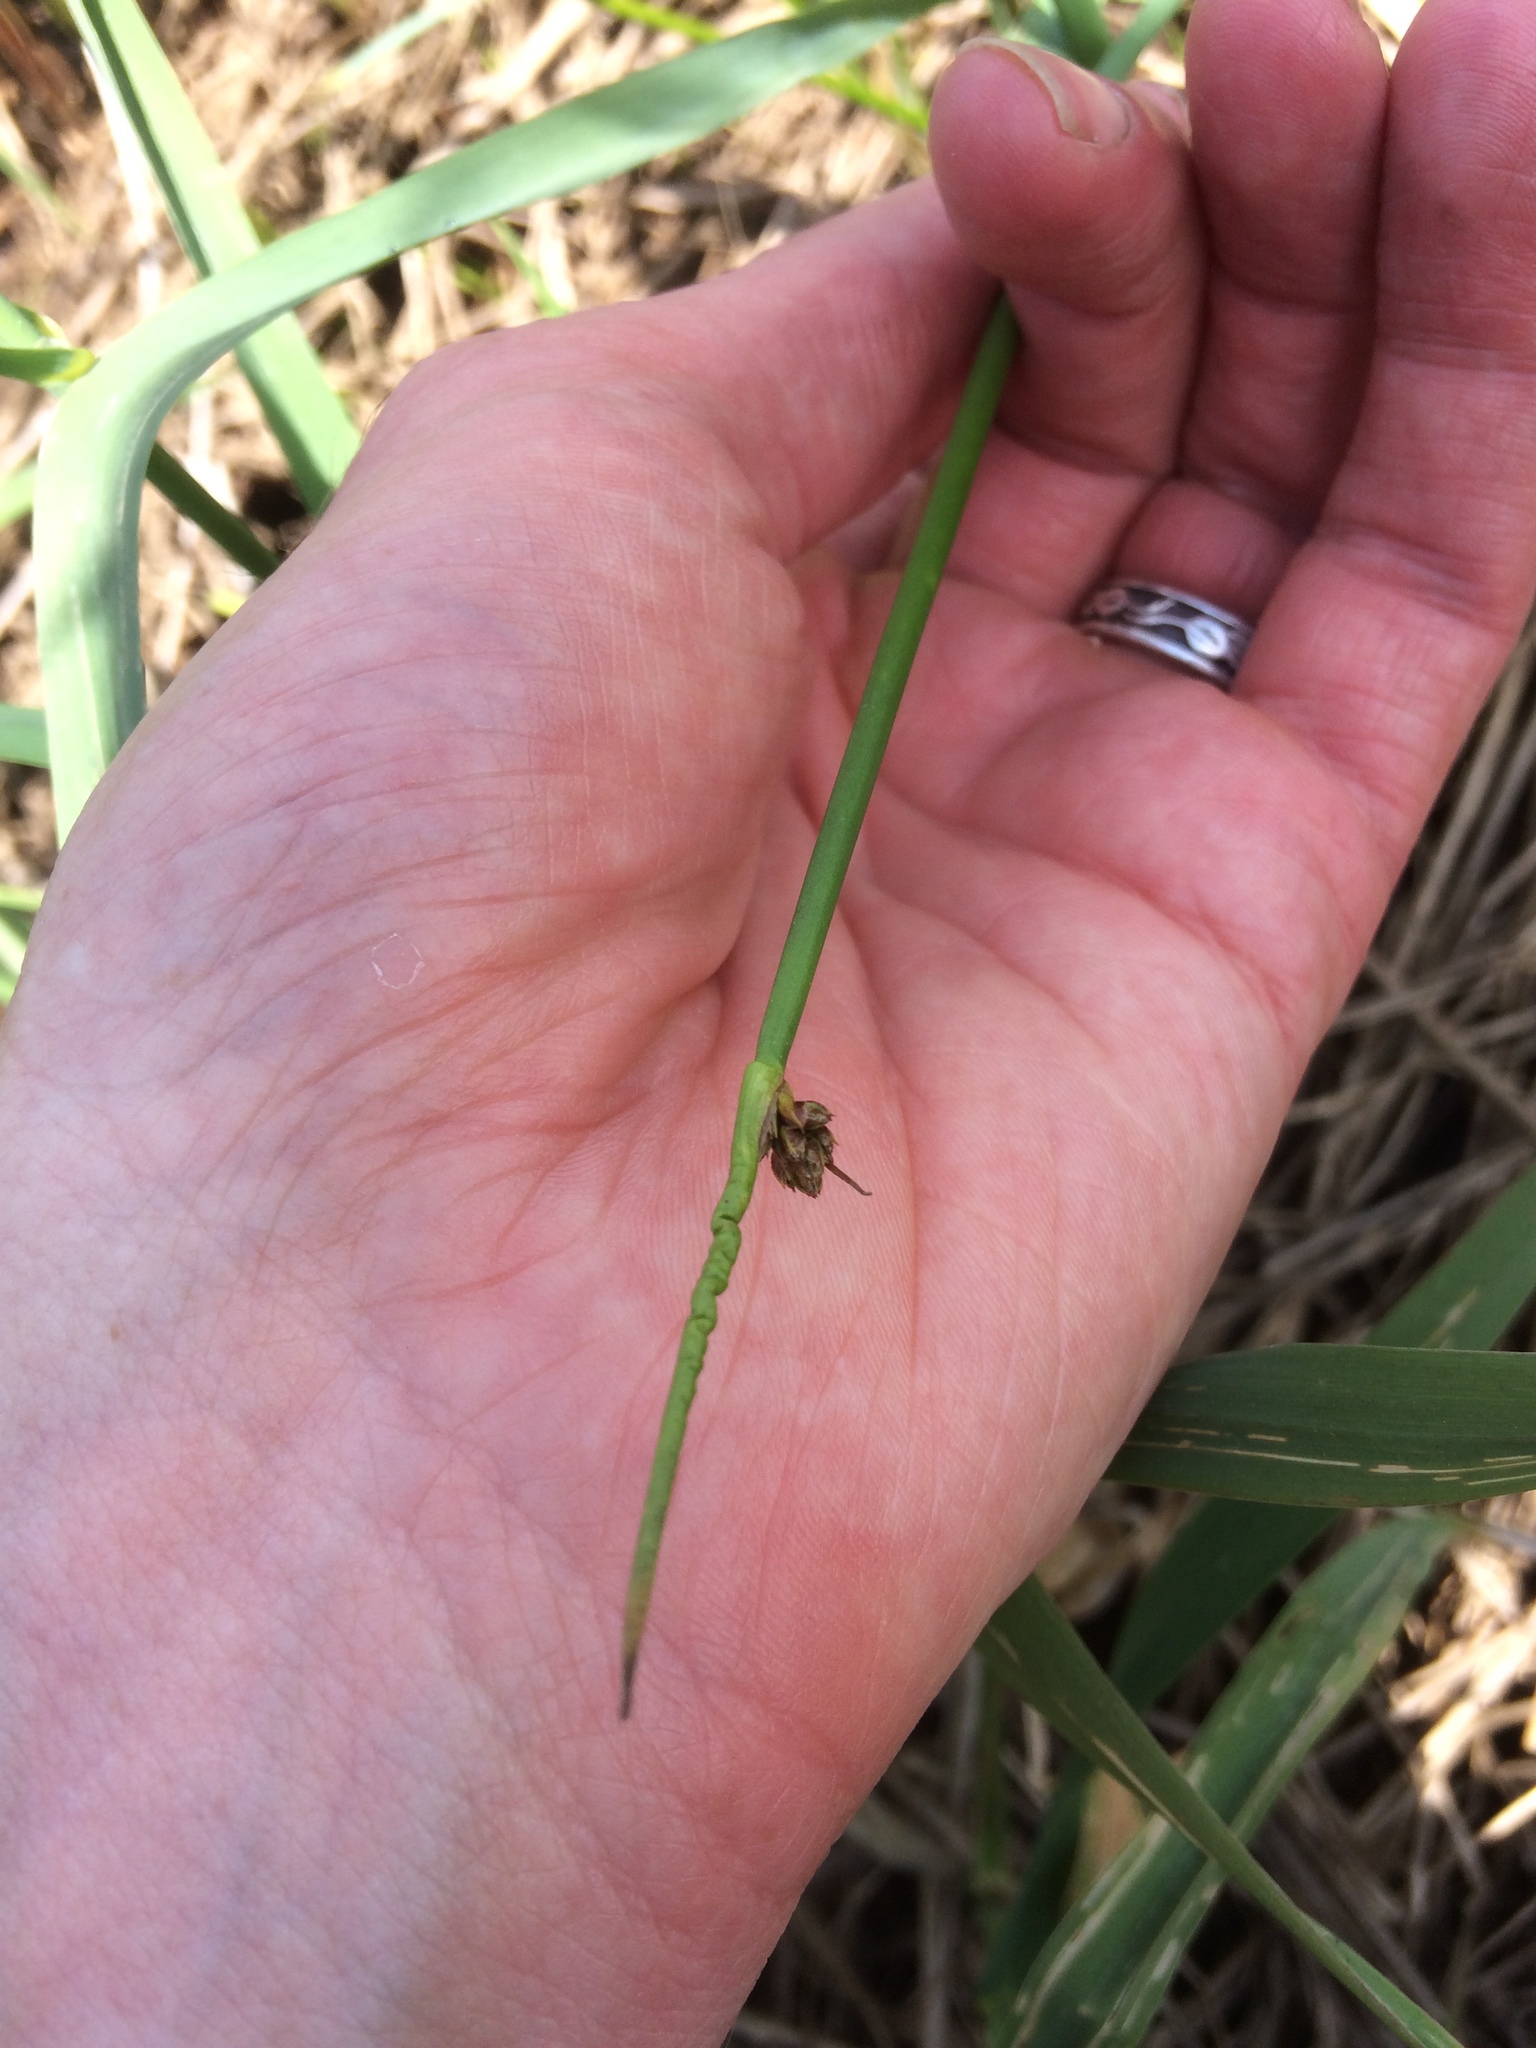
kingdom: Plantae
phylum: Tracheophyta
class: Liliopsida
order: Poales
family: Cyperaceae
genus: Schoenoplectus
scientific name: Schoenoplectus tabernaemontani
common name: Grey club-rush
